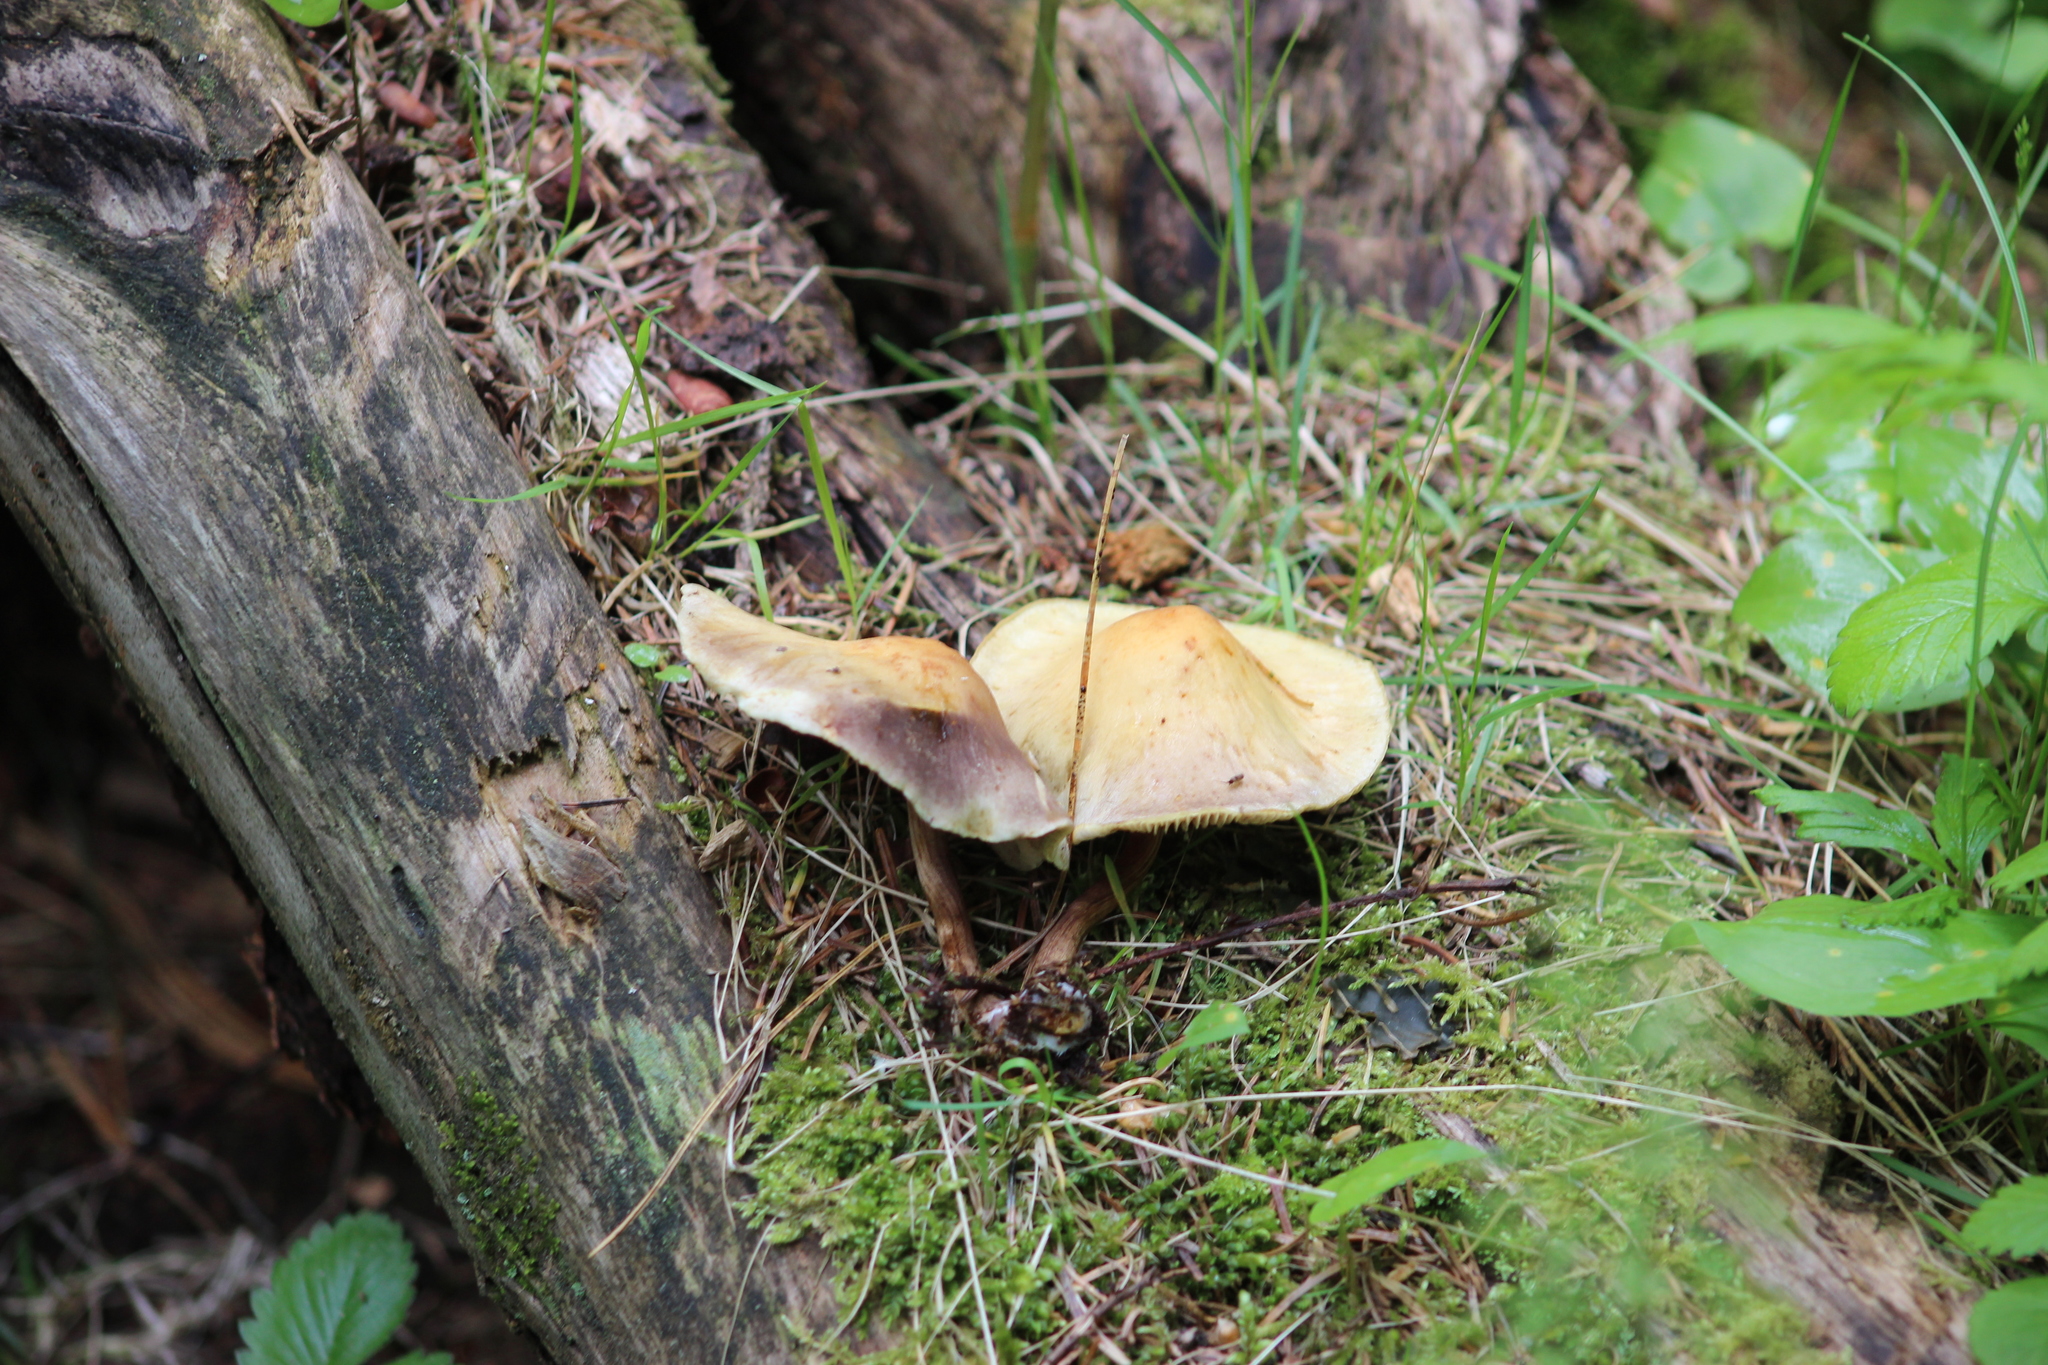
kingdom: Fungi
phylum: Basidiomycota
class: Agaricomycetes
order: Agaricales
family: Strophariaceae
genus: Hypholoma
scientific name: Hypholoma fasciculare
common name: Sulphur tuft
